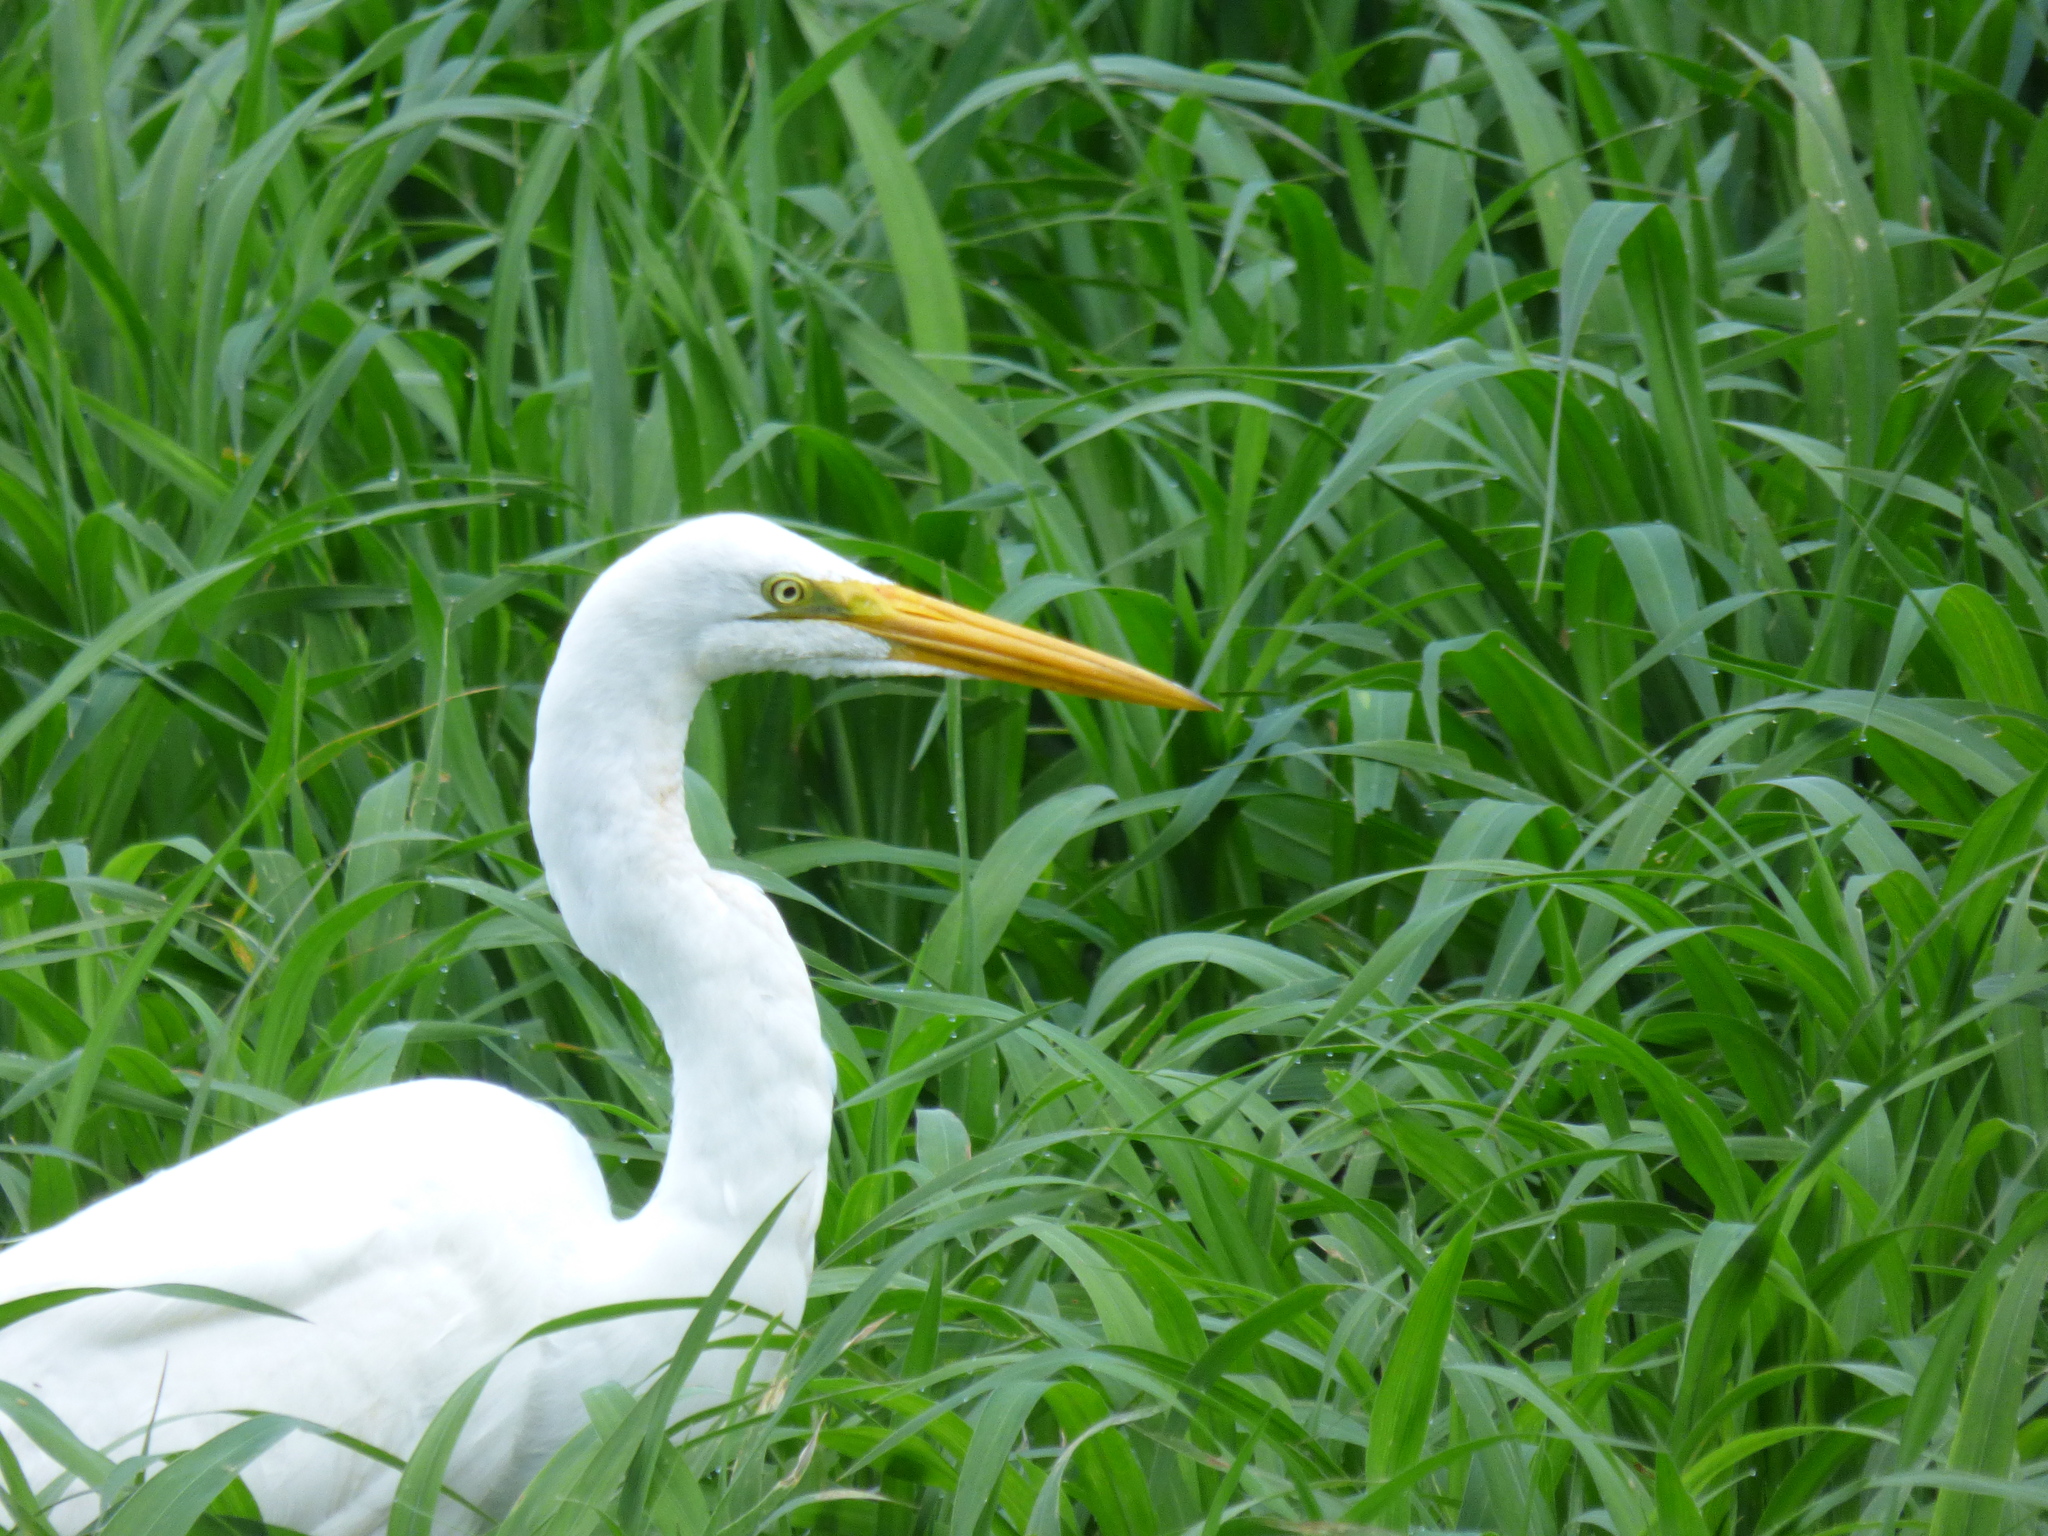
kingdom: Animalia
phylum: Chordata
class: Aves
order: Pelecaniformes
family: Ardeidae
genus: Ardea
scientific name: Ardea alba
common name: Great egret
